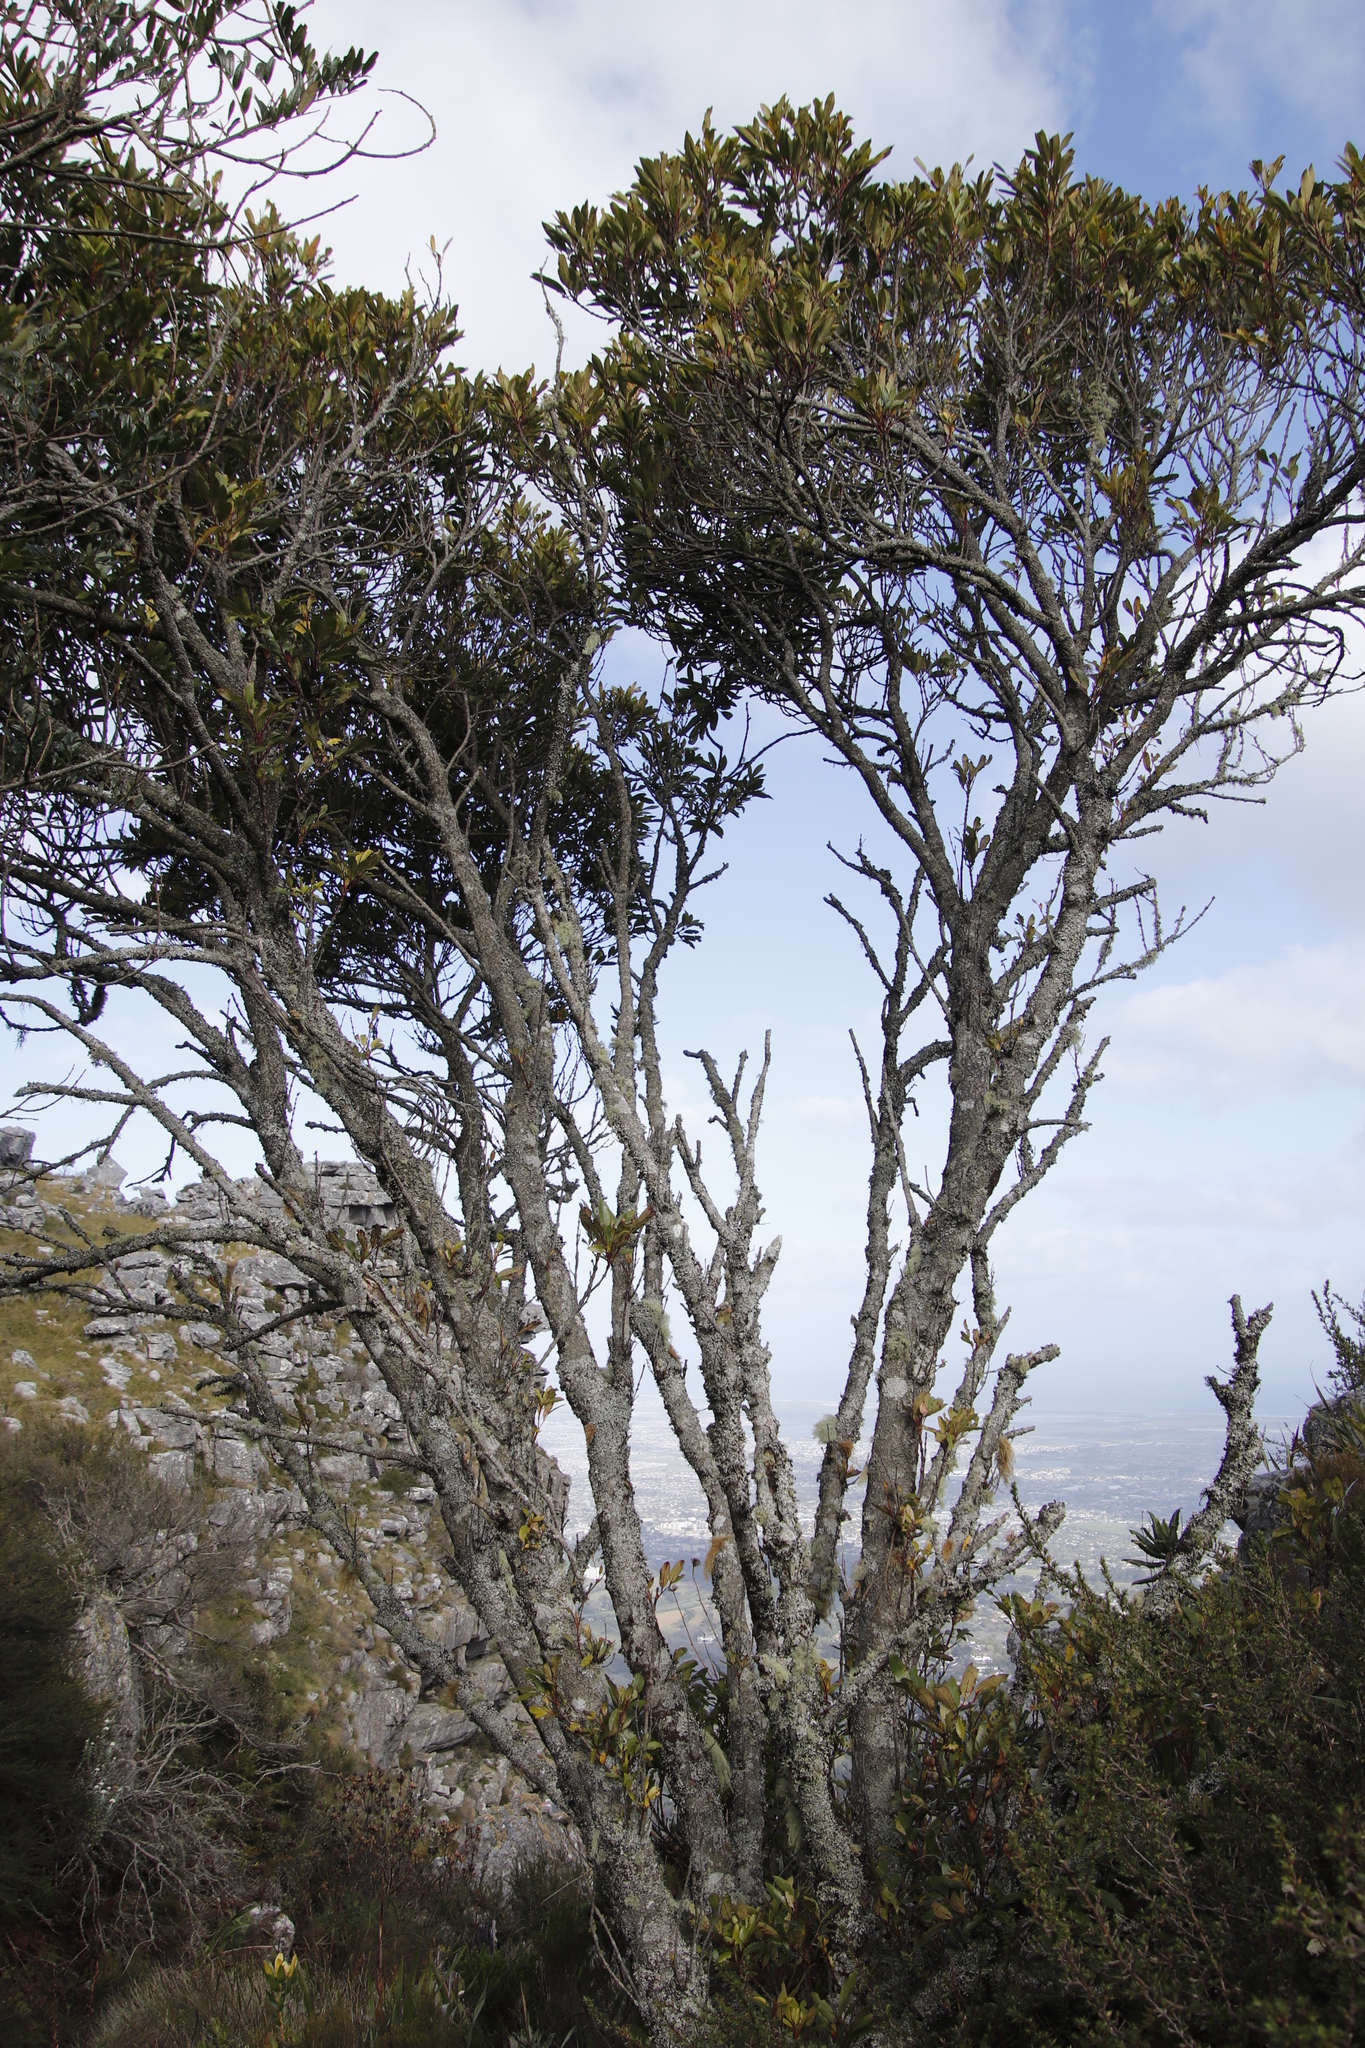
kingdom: Plantae
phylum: Tracheophyta
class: Magnoliopsida
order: Oxalidales
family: Cunoniaceae
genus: Cunonia
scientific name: Cunonia capensis
